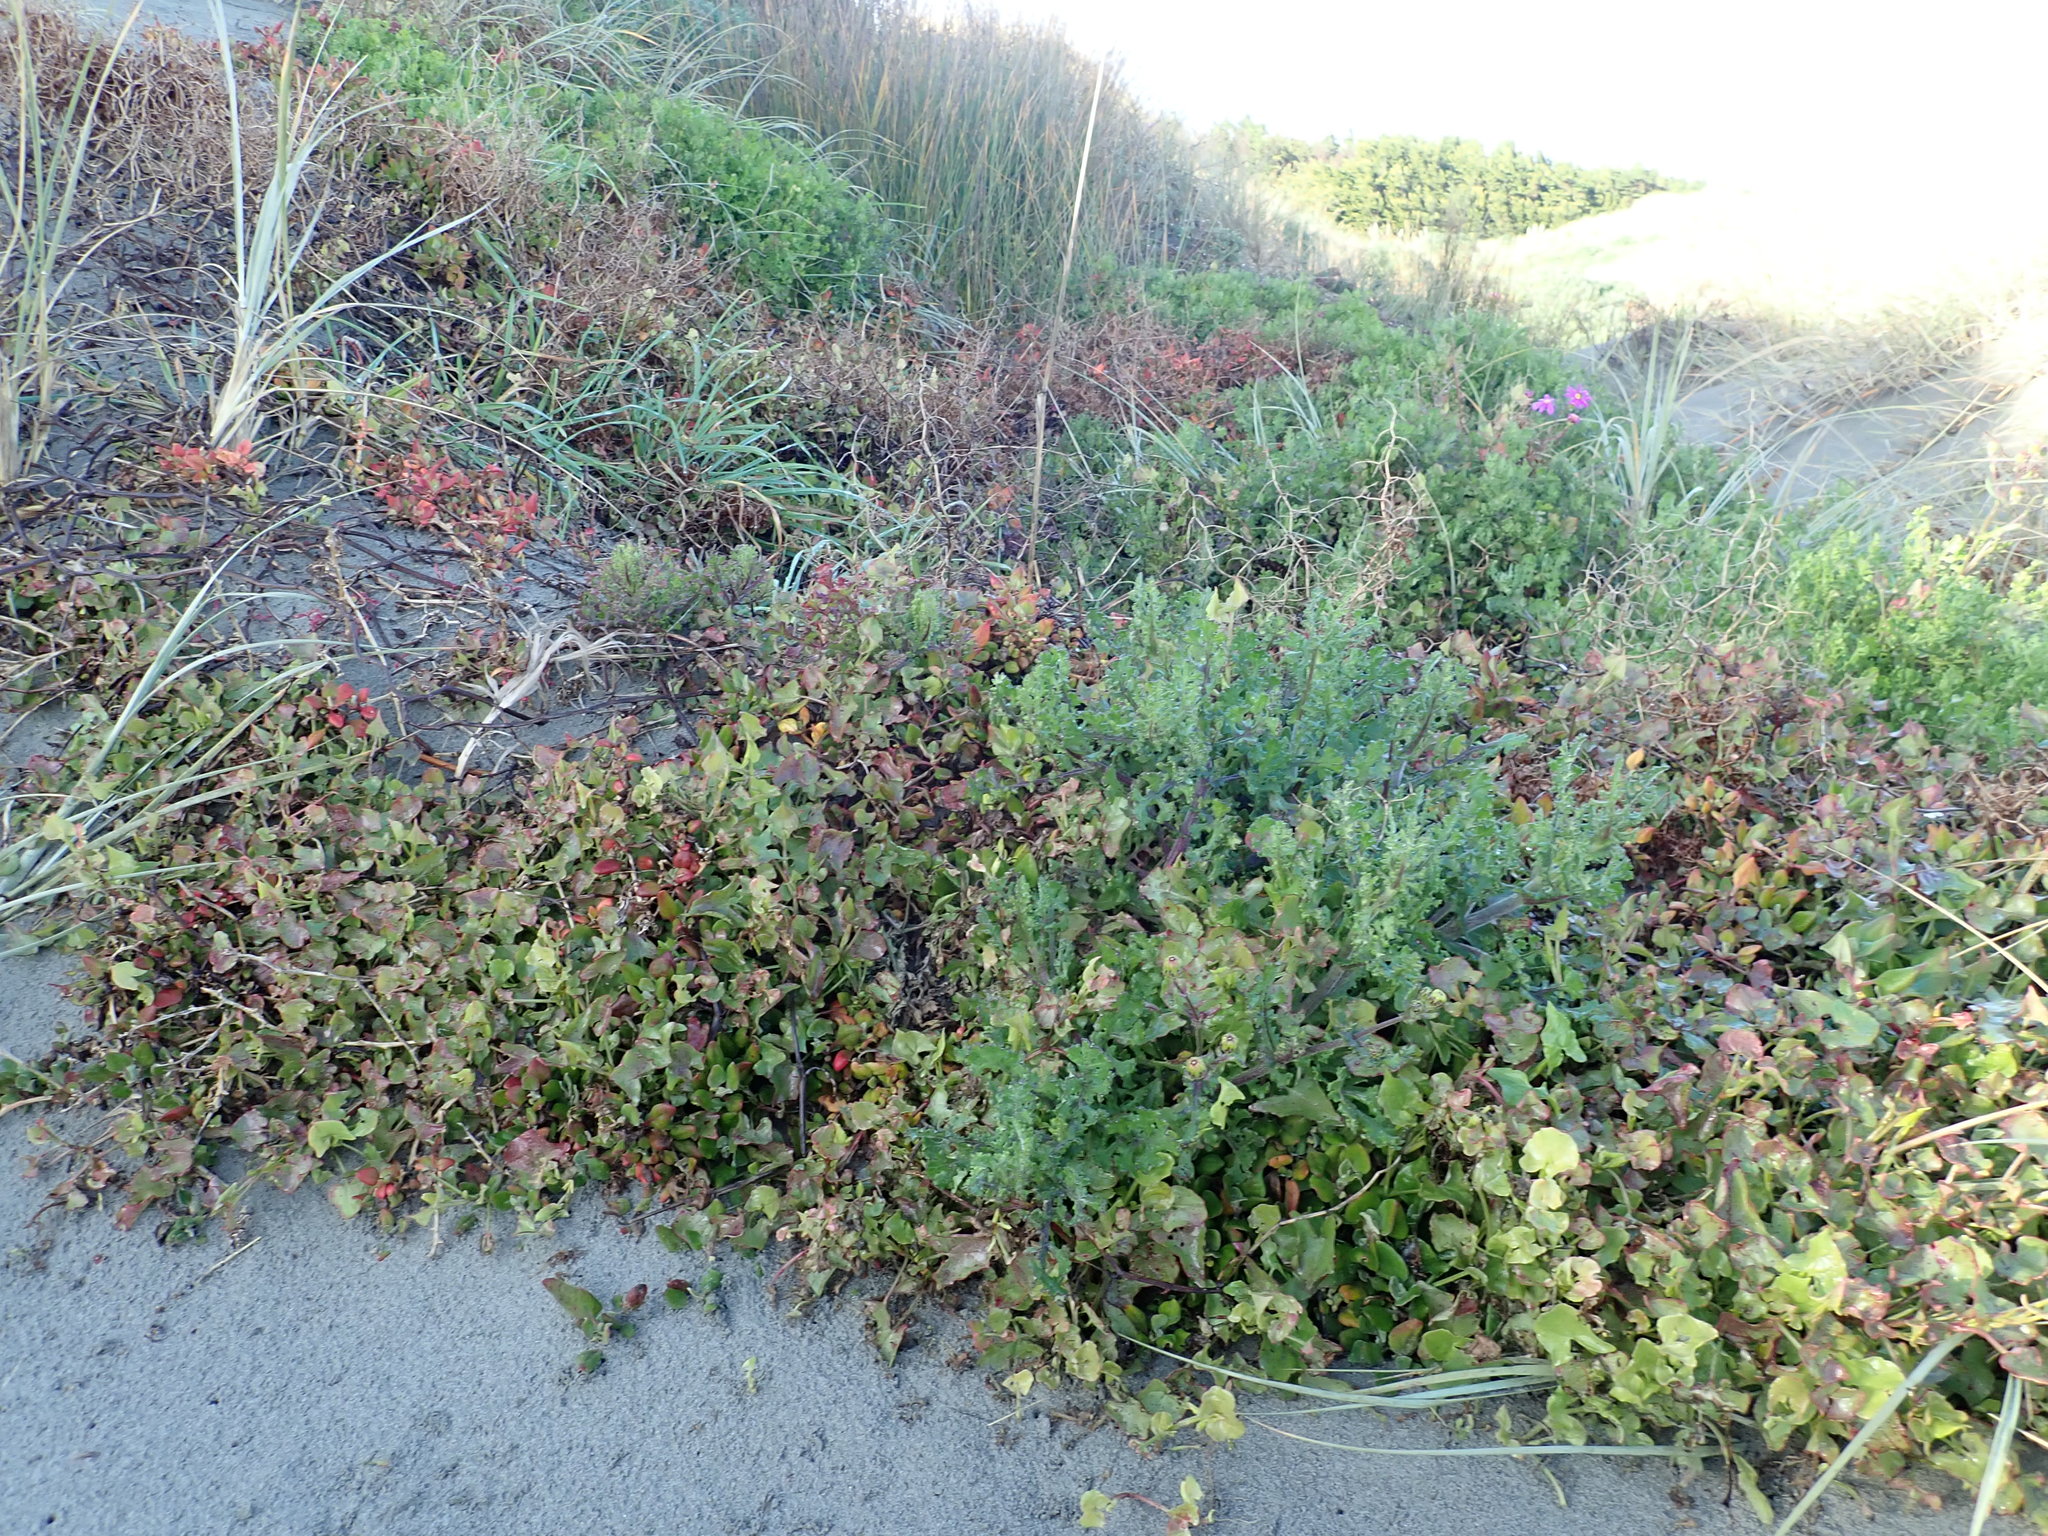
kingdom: Plantae
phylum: Tracheophyta
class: Magnoliopsida
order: Caryophyllales
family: Polygonaceae
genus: Rumex
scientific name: Rumex sagittatus
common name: Climbing dock
